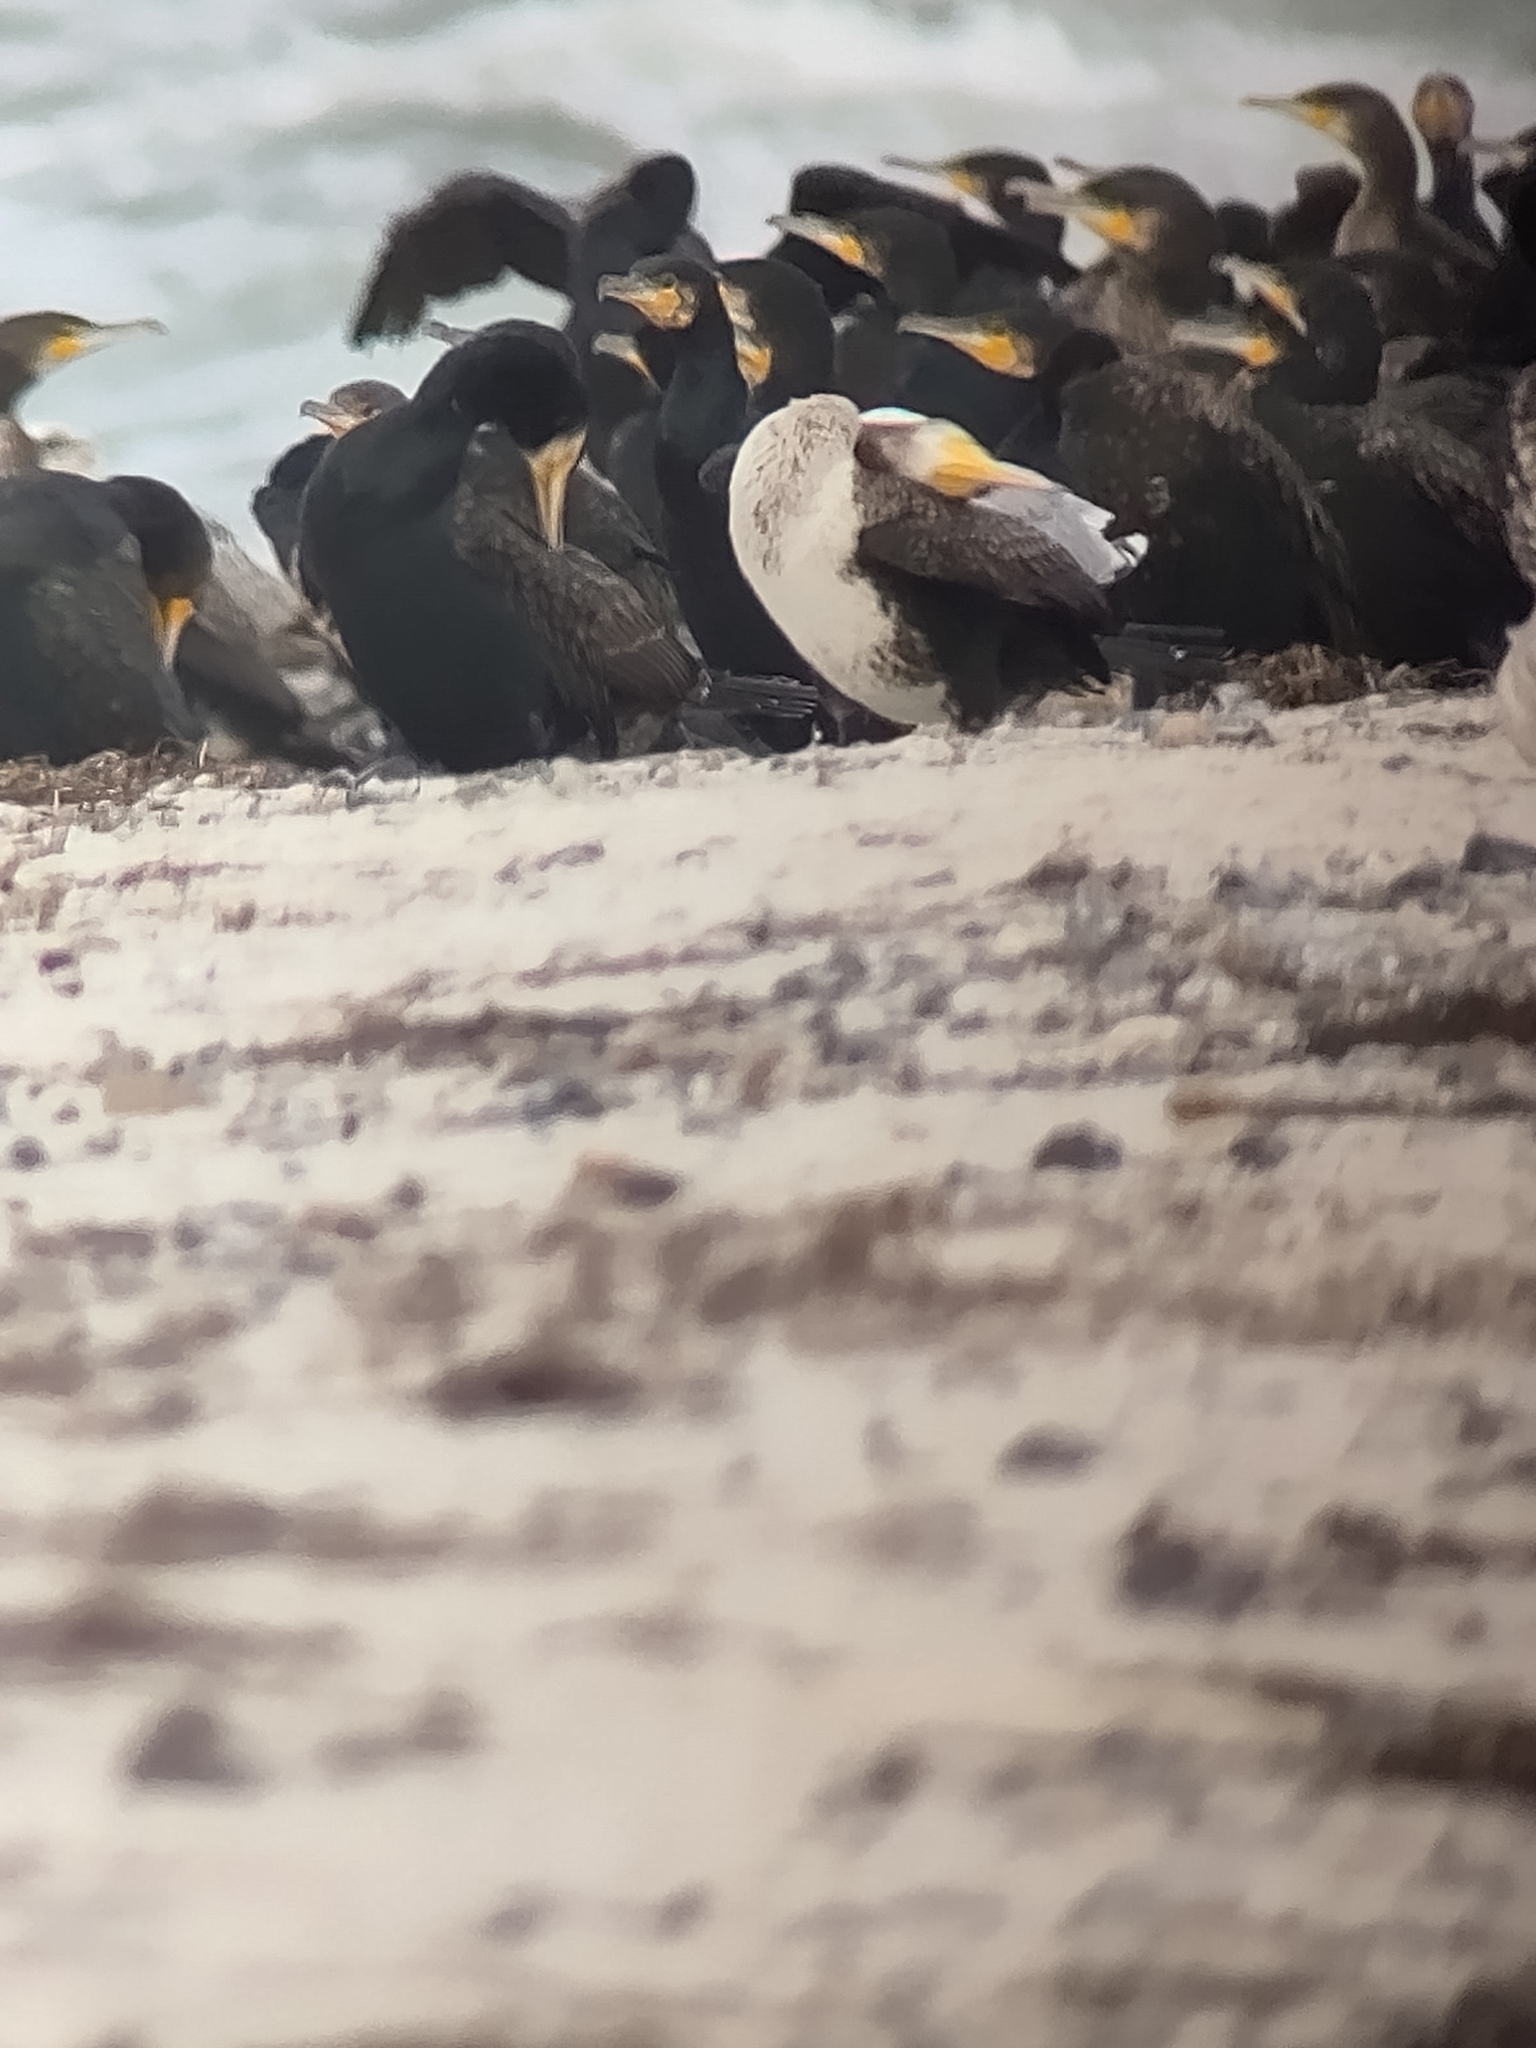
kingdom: Animalia
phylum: Chordata
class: Aves
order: Suliformes
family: Phalacrocoracidae
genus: Phalacrocorax
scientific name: Phalacrocorax carbo
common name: Great cormorant
